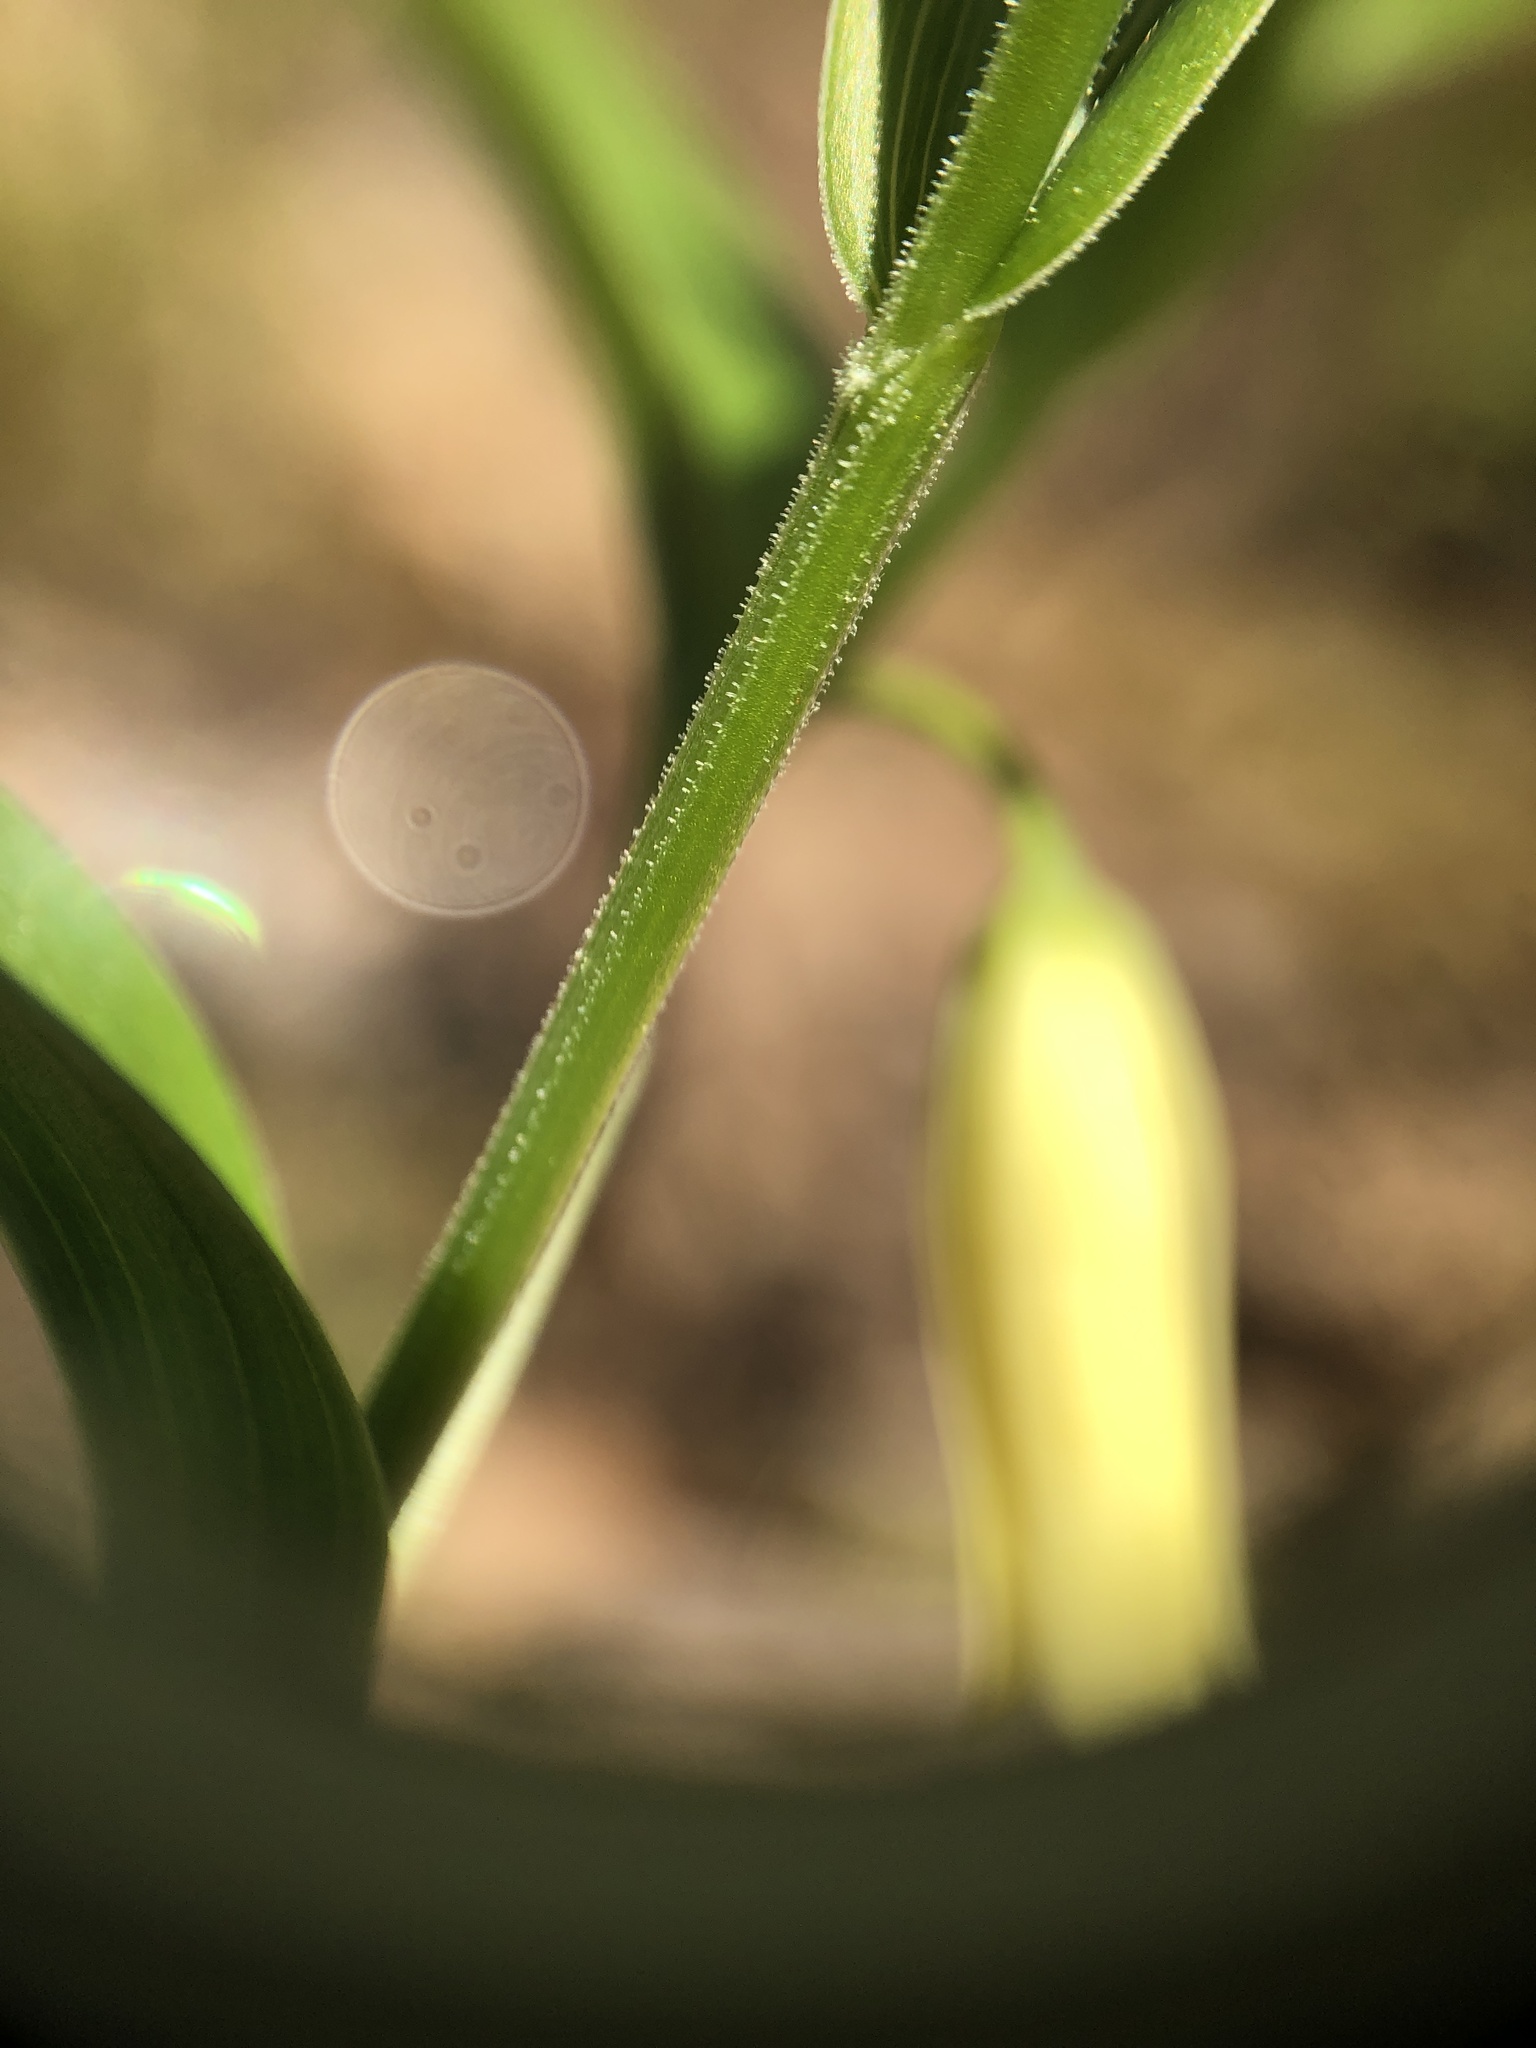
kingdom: Plantae
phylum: Tracheophyta
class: Liliopsida
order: Liliales
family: Colchicaceae
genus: Uvularia
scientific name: Uvularia puberula
